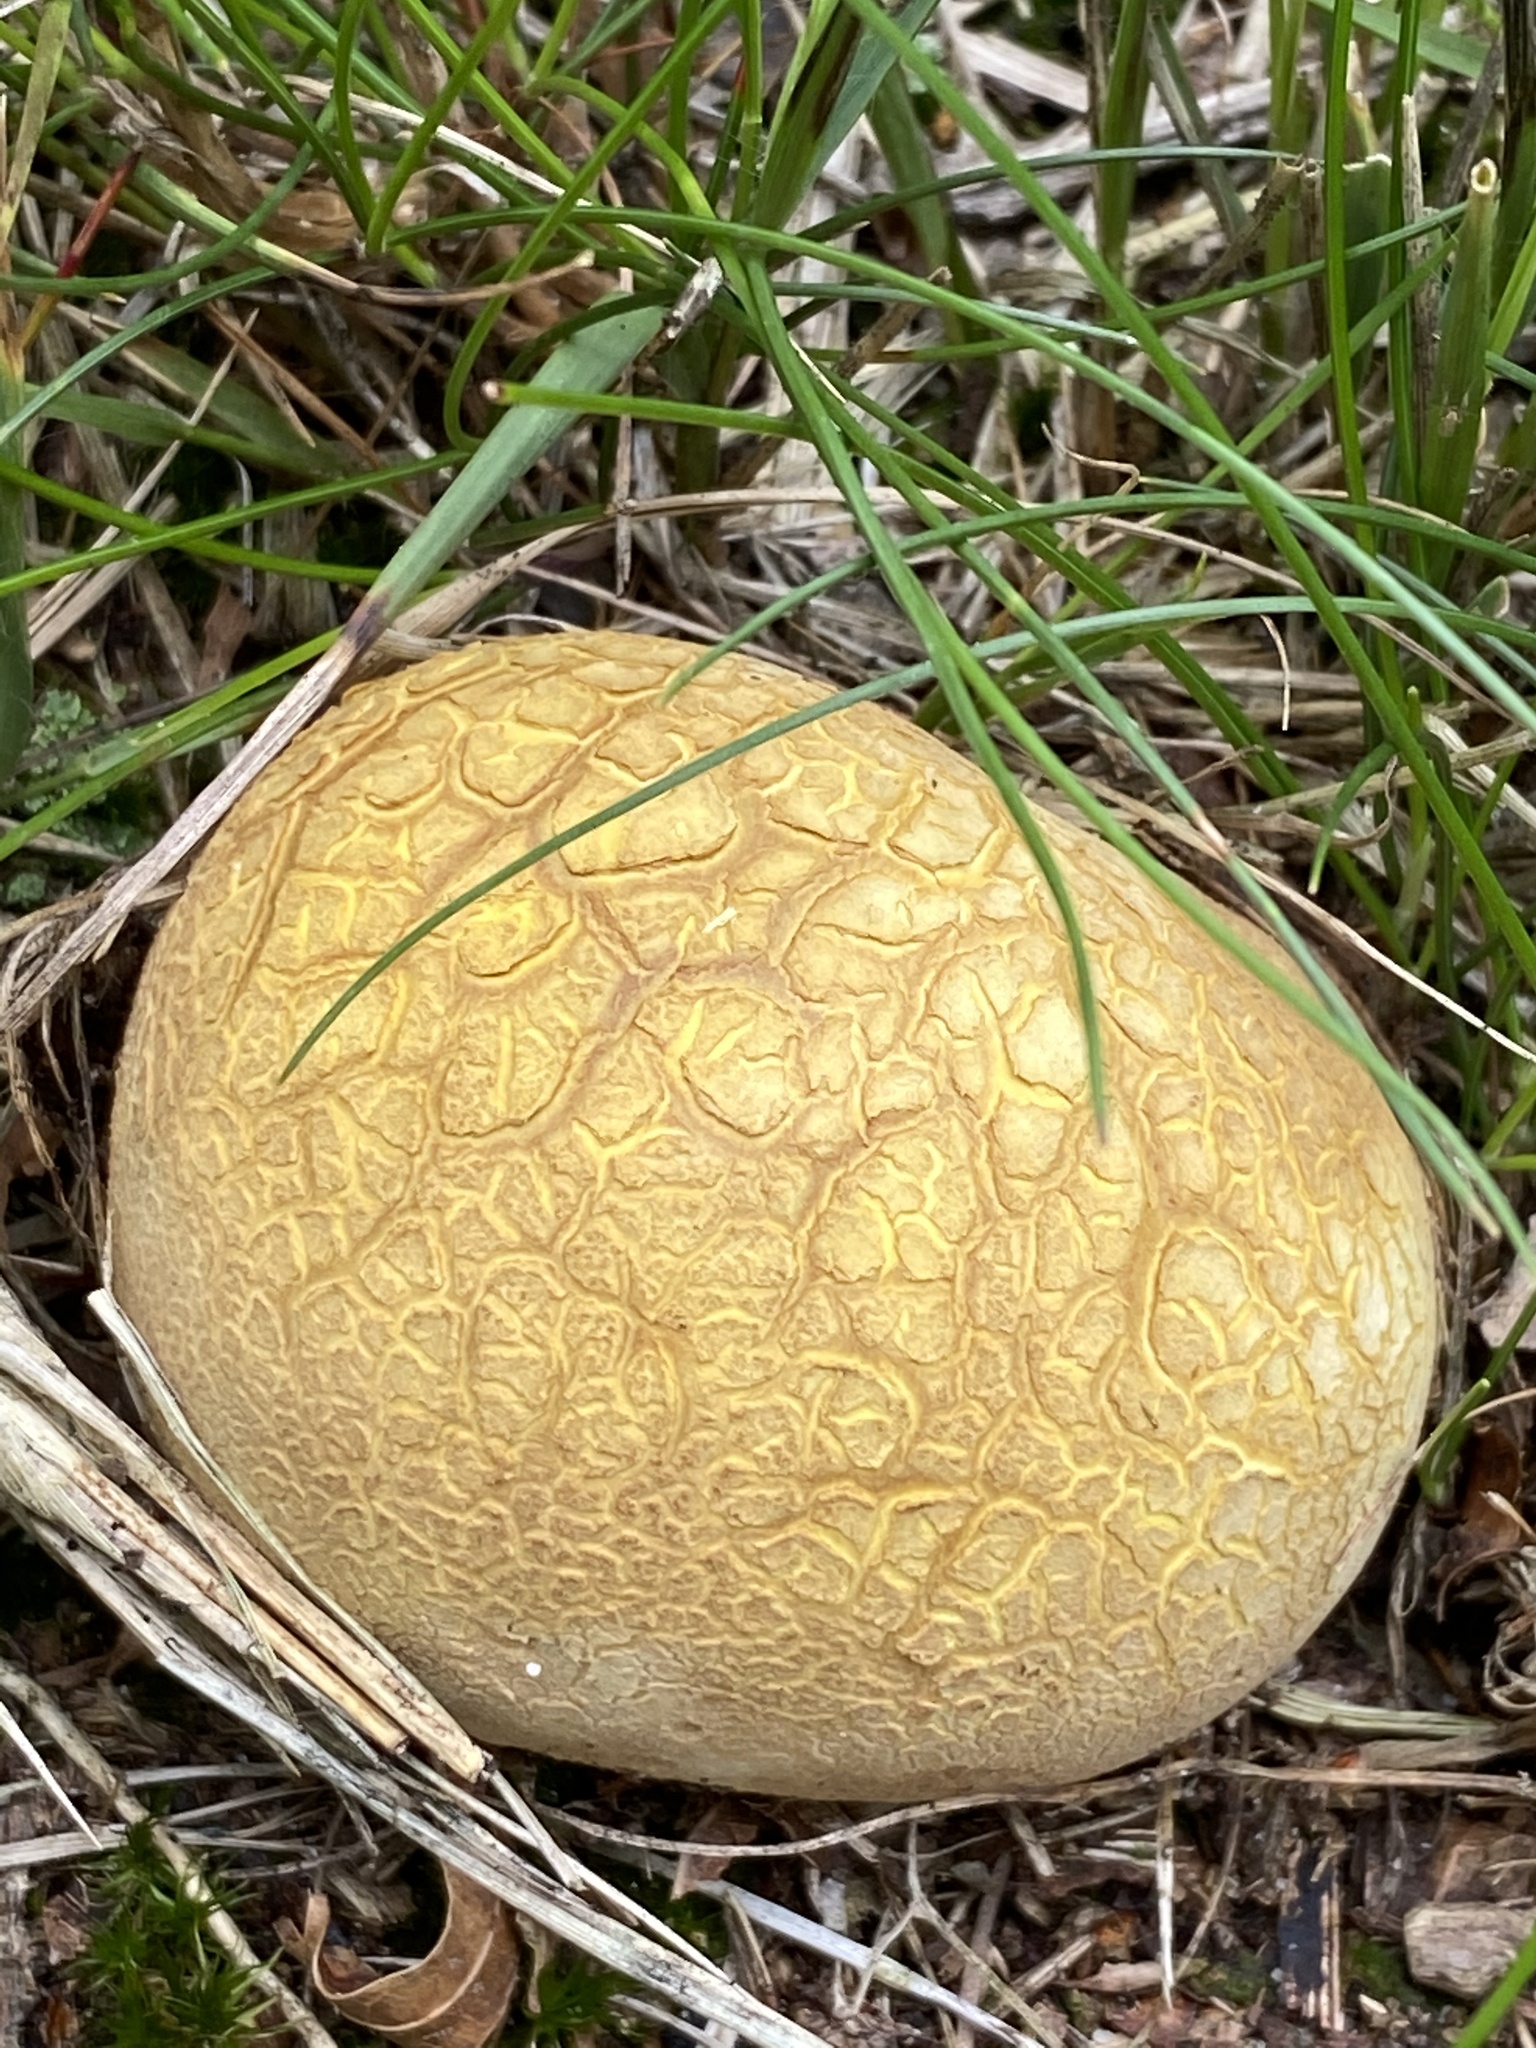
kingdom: Fungi
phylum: Basidiomycota
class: Agaricomycetes
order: Boletales
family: Sclerodermataceae
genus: Scleroderma
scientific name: Scleroderma citrinum
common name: Common earthball
